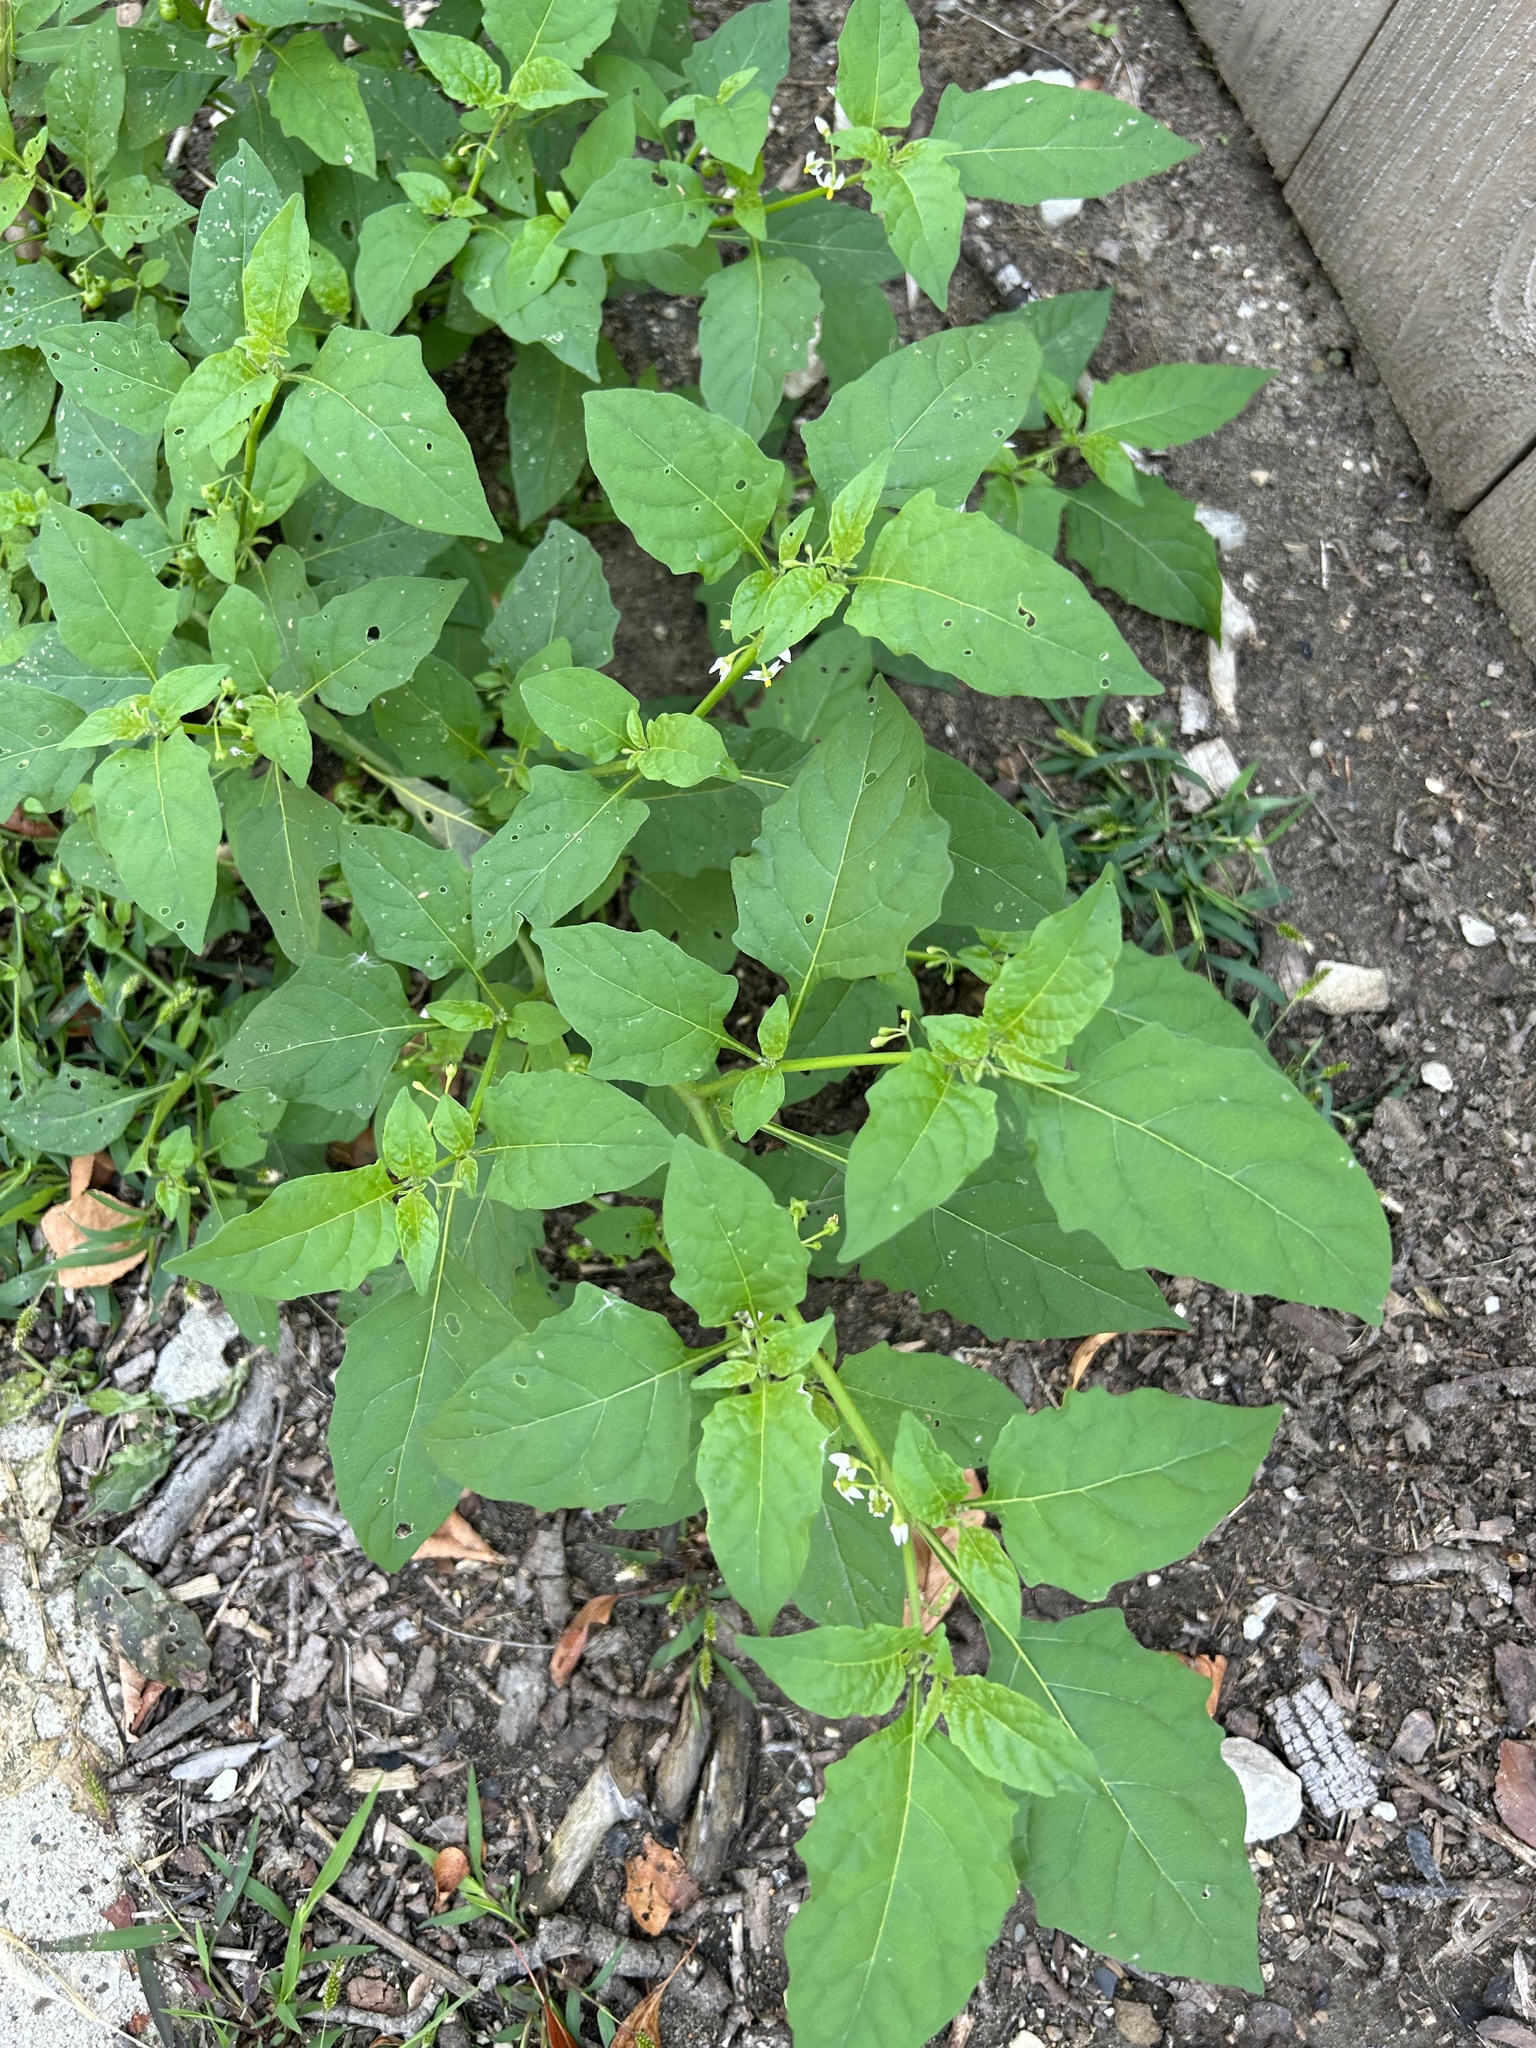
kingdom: Plantae
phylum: Tracheophyta
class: Magnoliopsida
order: Solanales
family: Solanaceae
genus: Solanum
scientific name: Solanum emulans
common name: Eastern black nightshade
